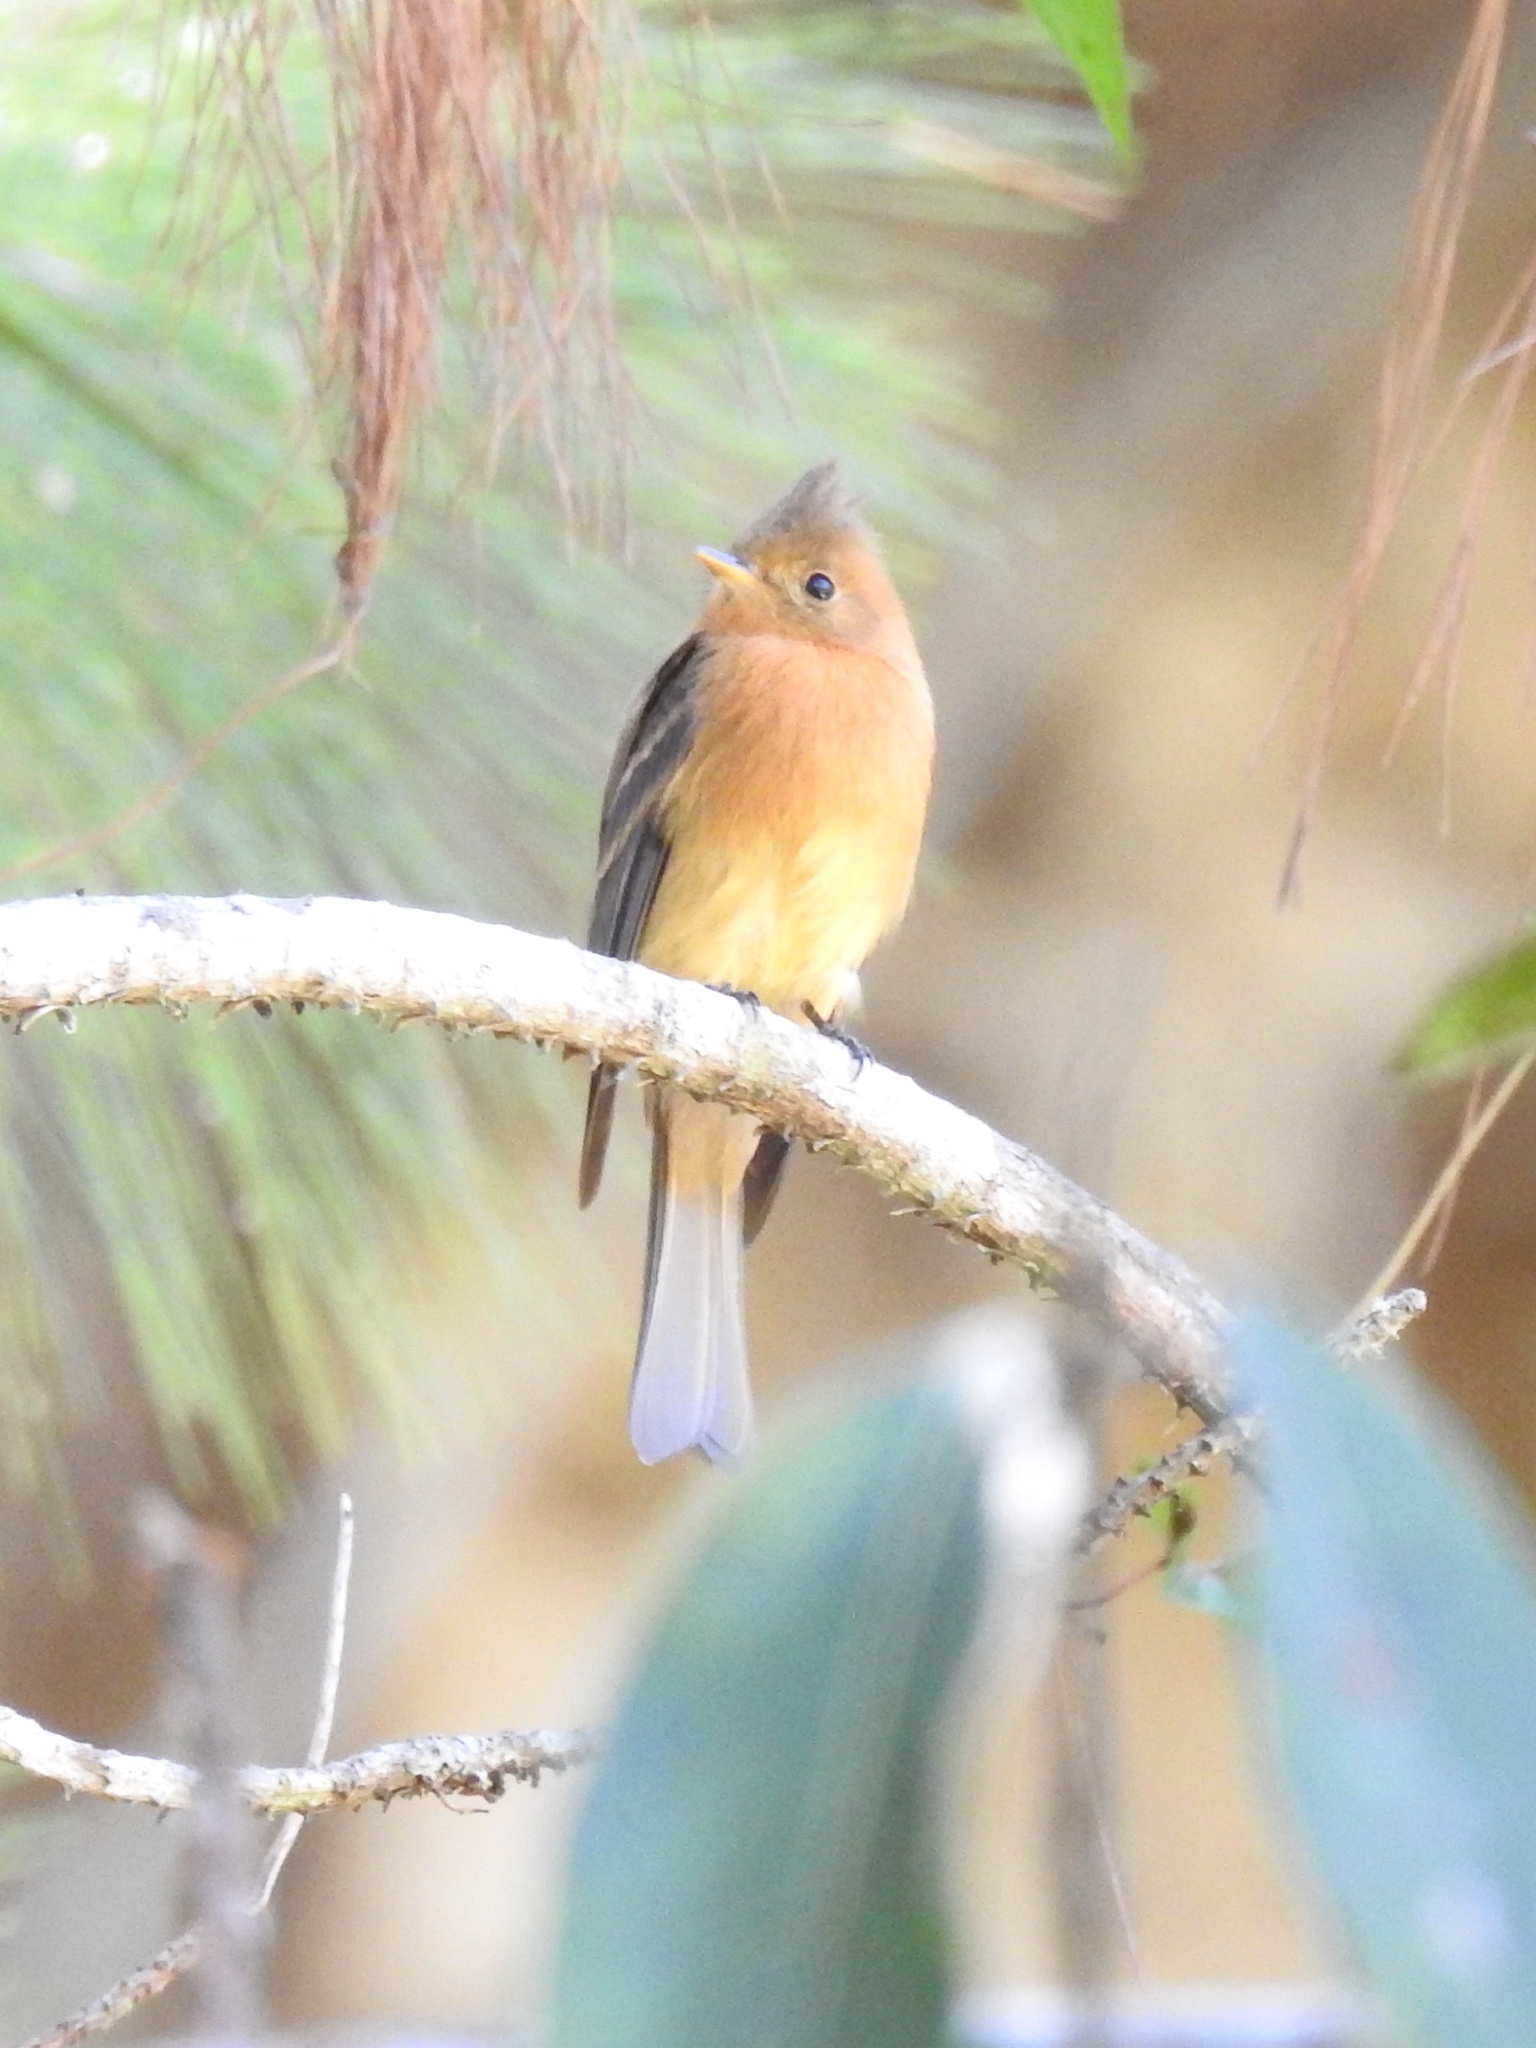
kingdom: Animalia
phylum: Chordata
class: Aves
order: Passeriformes
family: Tyrannidae
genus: Mitrephanes
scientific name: Mitrephanes phaeocercus
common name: Northern tufted flycatcher
